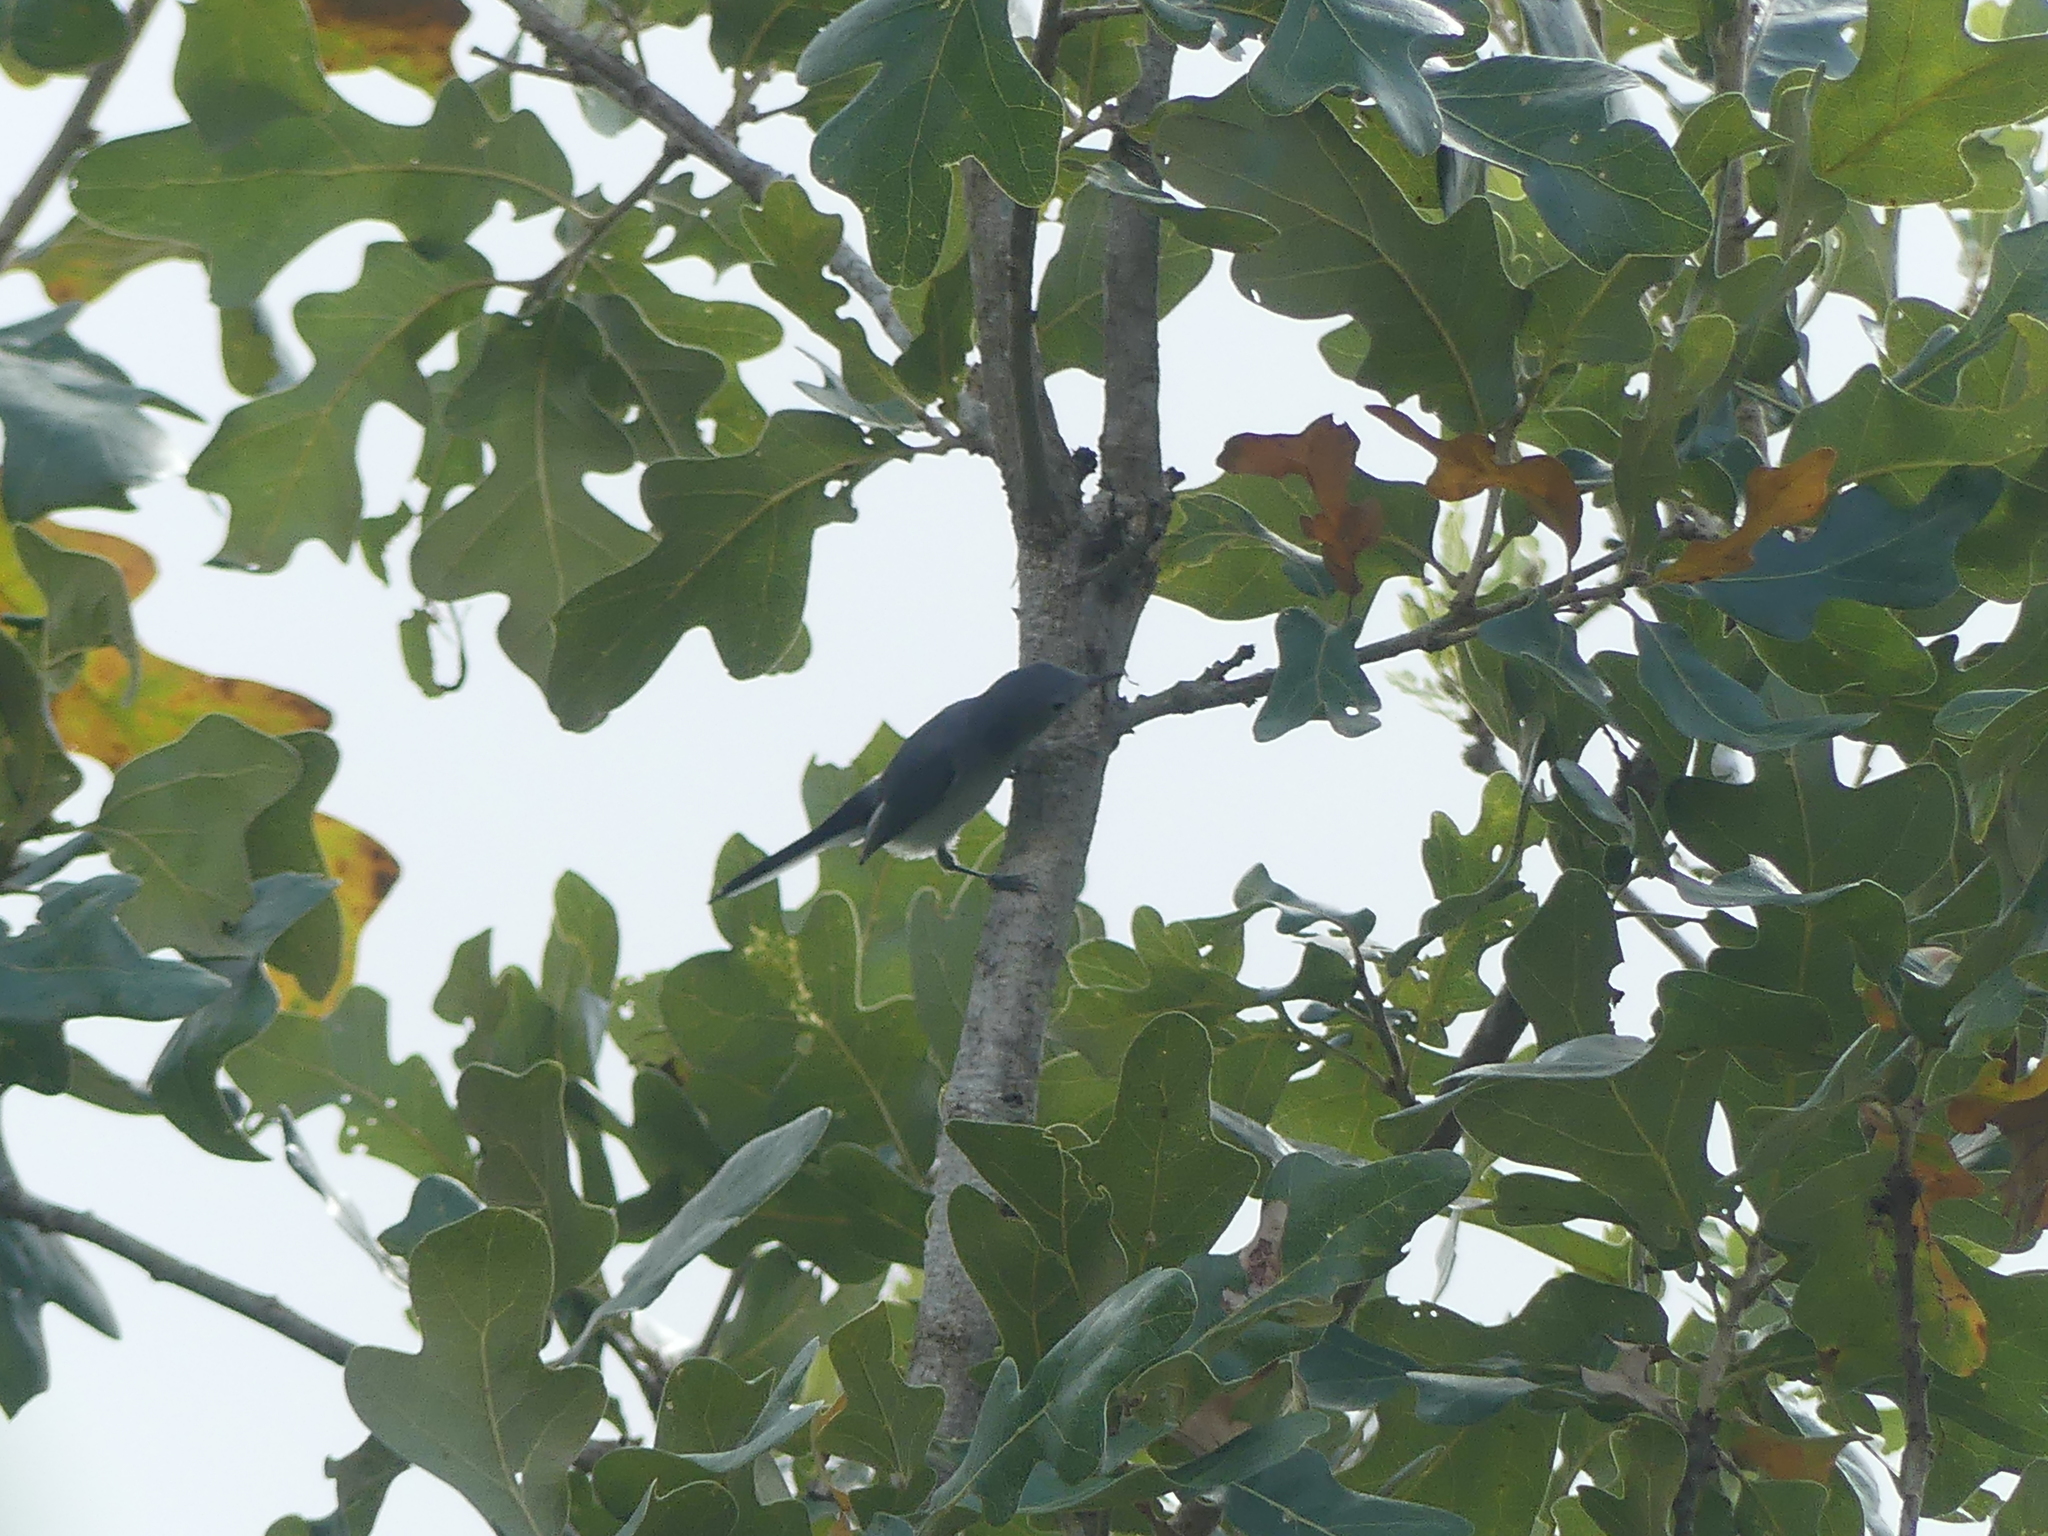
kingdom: Animalia
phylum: Chordata
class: Aves
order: Passeriformes
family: Polioptilidae
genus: Polioptila
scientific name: Polioptila caerulea
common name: Blue-gray gnatcatcher
